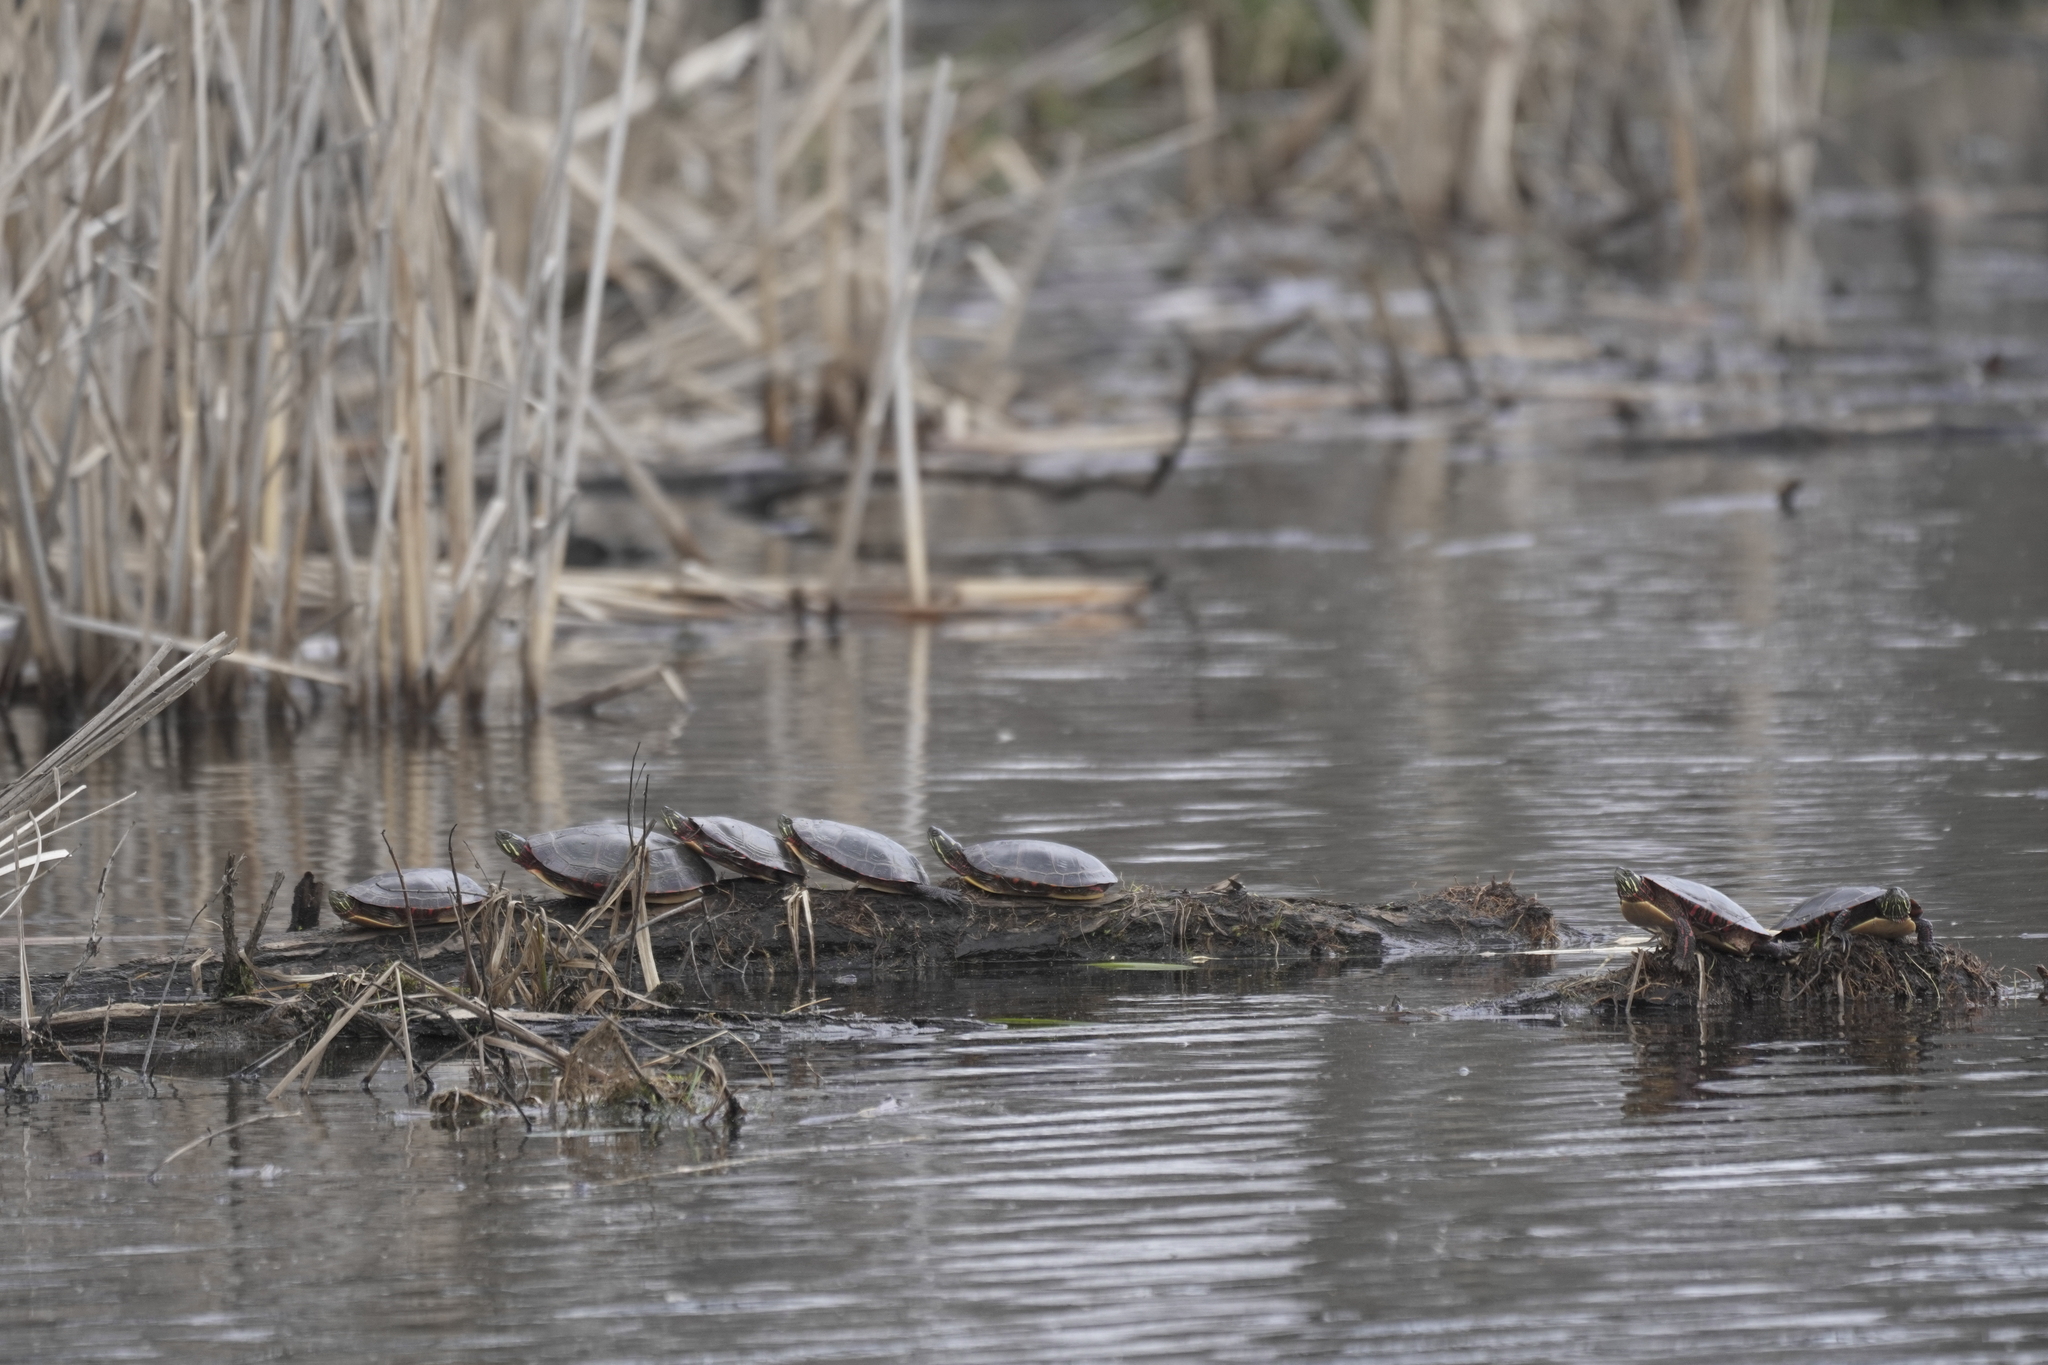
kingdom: Animalia
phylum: Chordata
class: Testudines
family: Emydidae
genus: Chrysemys
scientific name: Chrysemys picta
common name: Painted turtle
